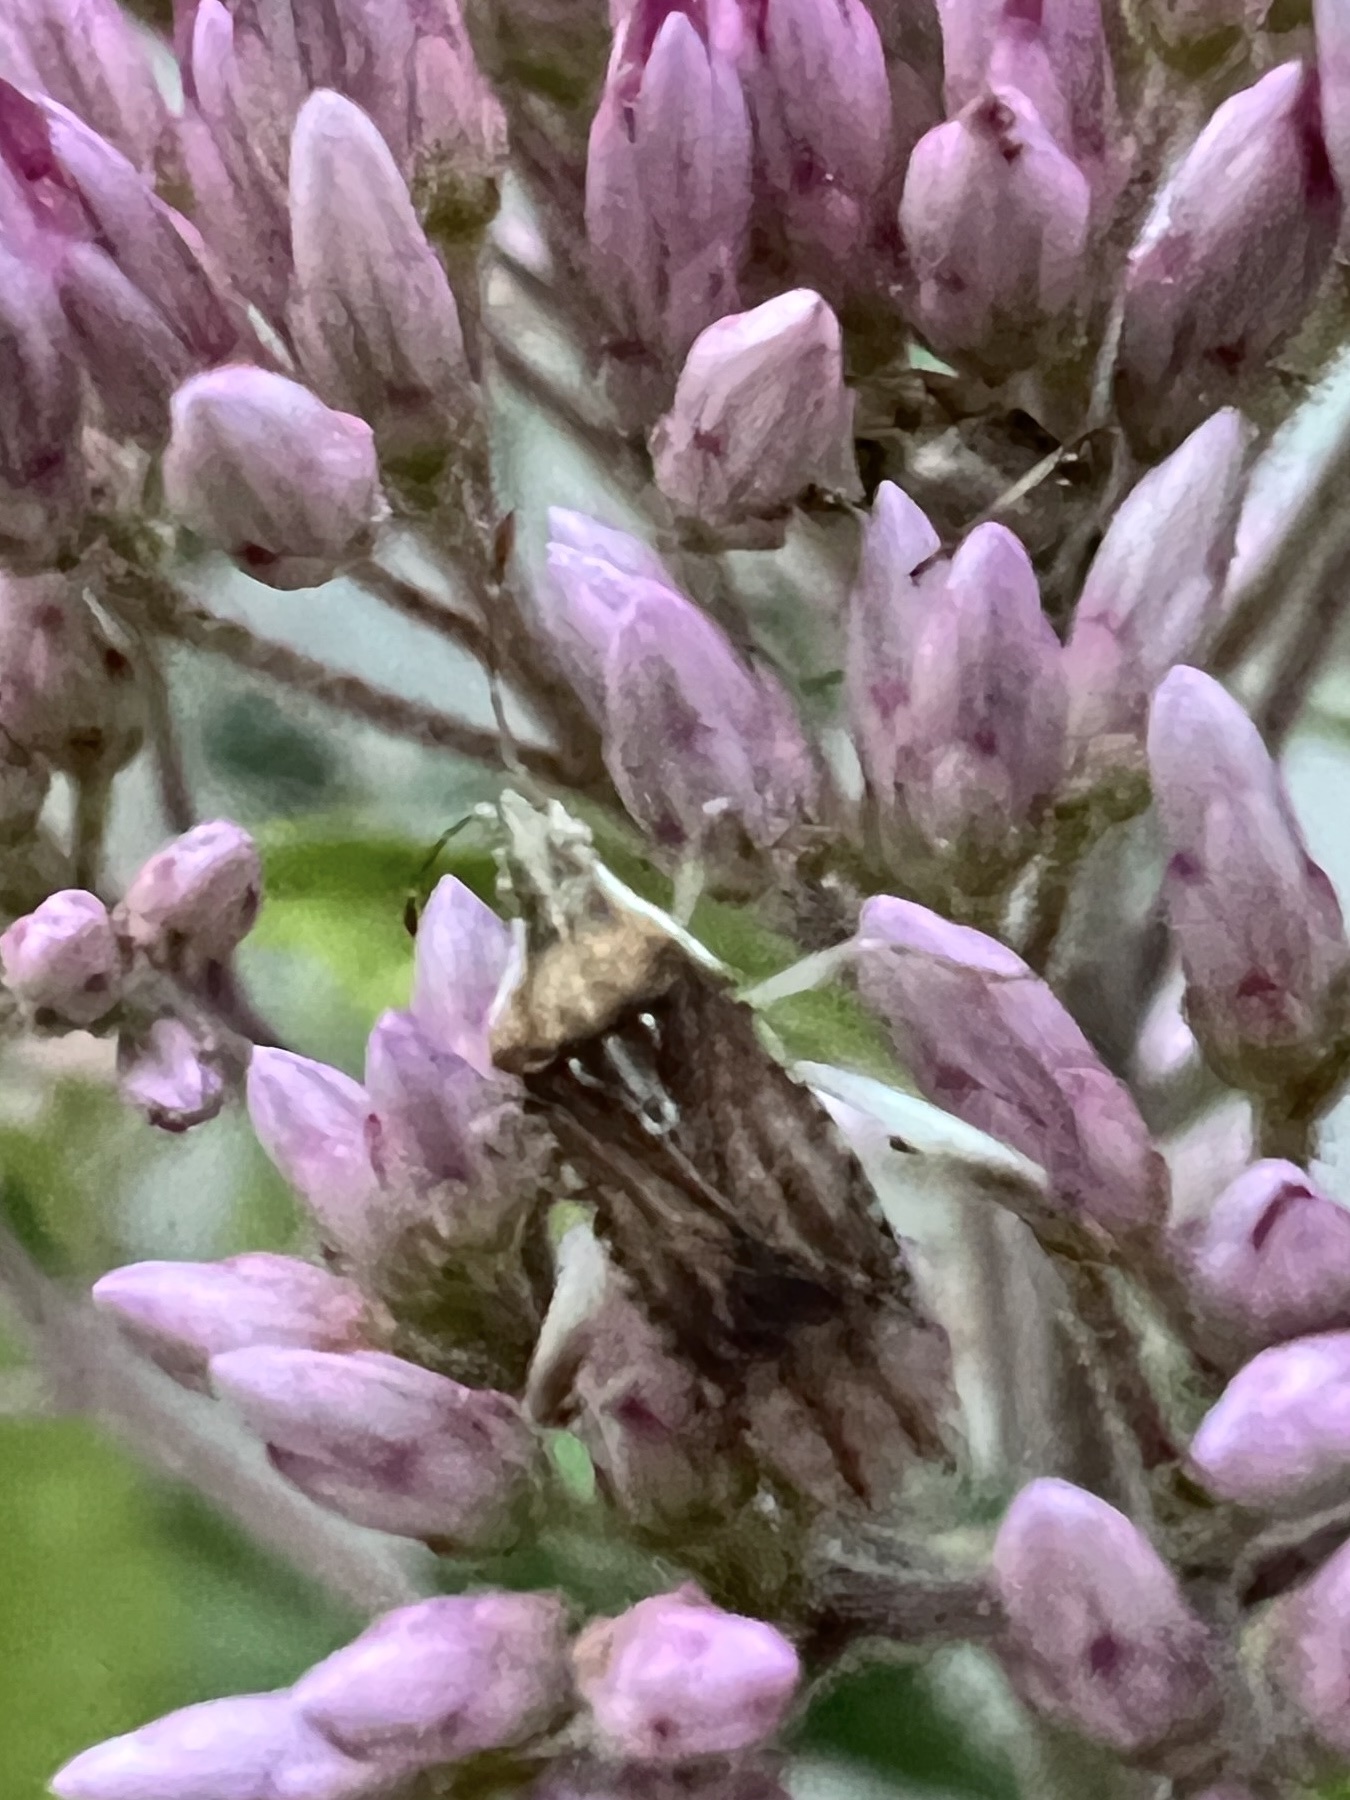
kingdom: Animalia
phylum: Arthropoda
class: Insecta
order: Hemiptera
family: Rhopalidae
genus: Harmostes
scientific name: Harmostes fraterculus
